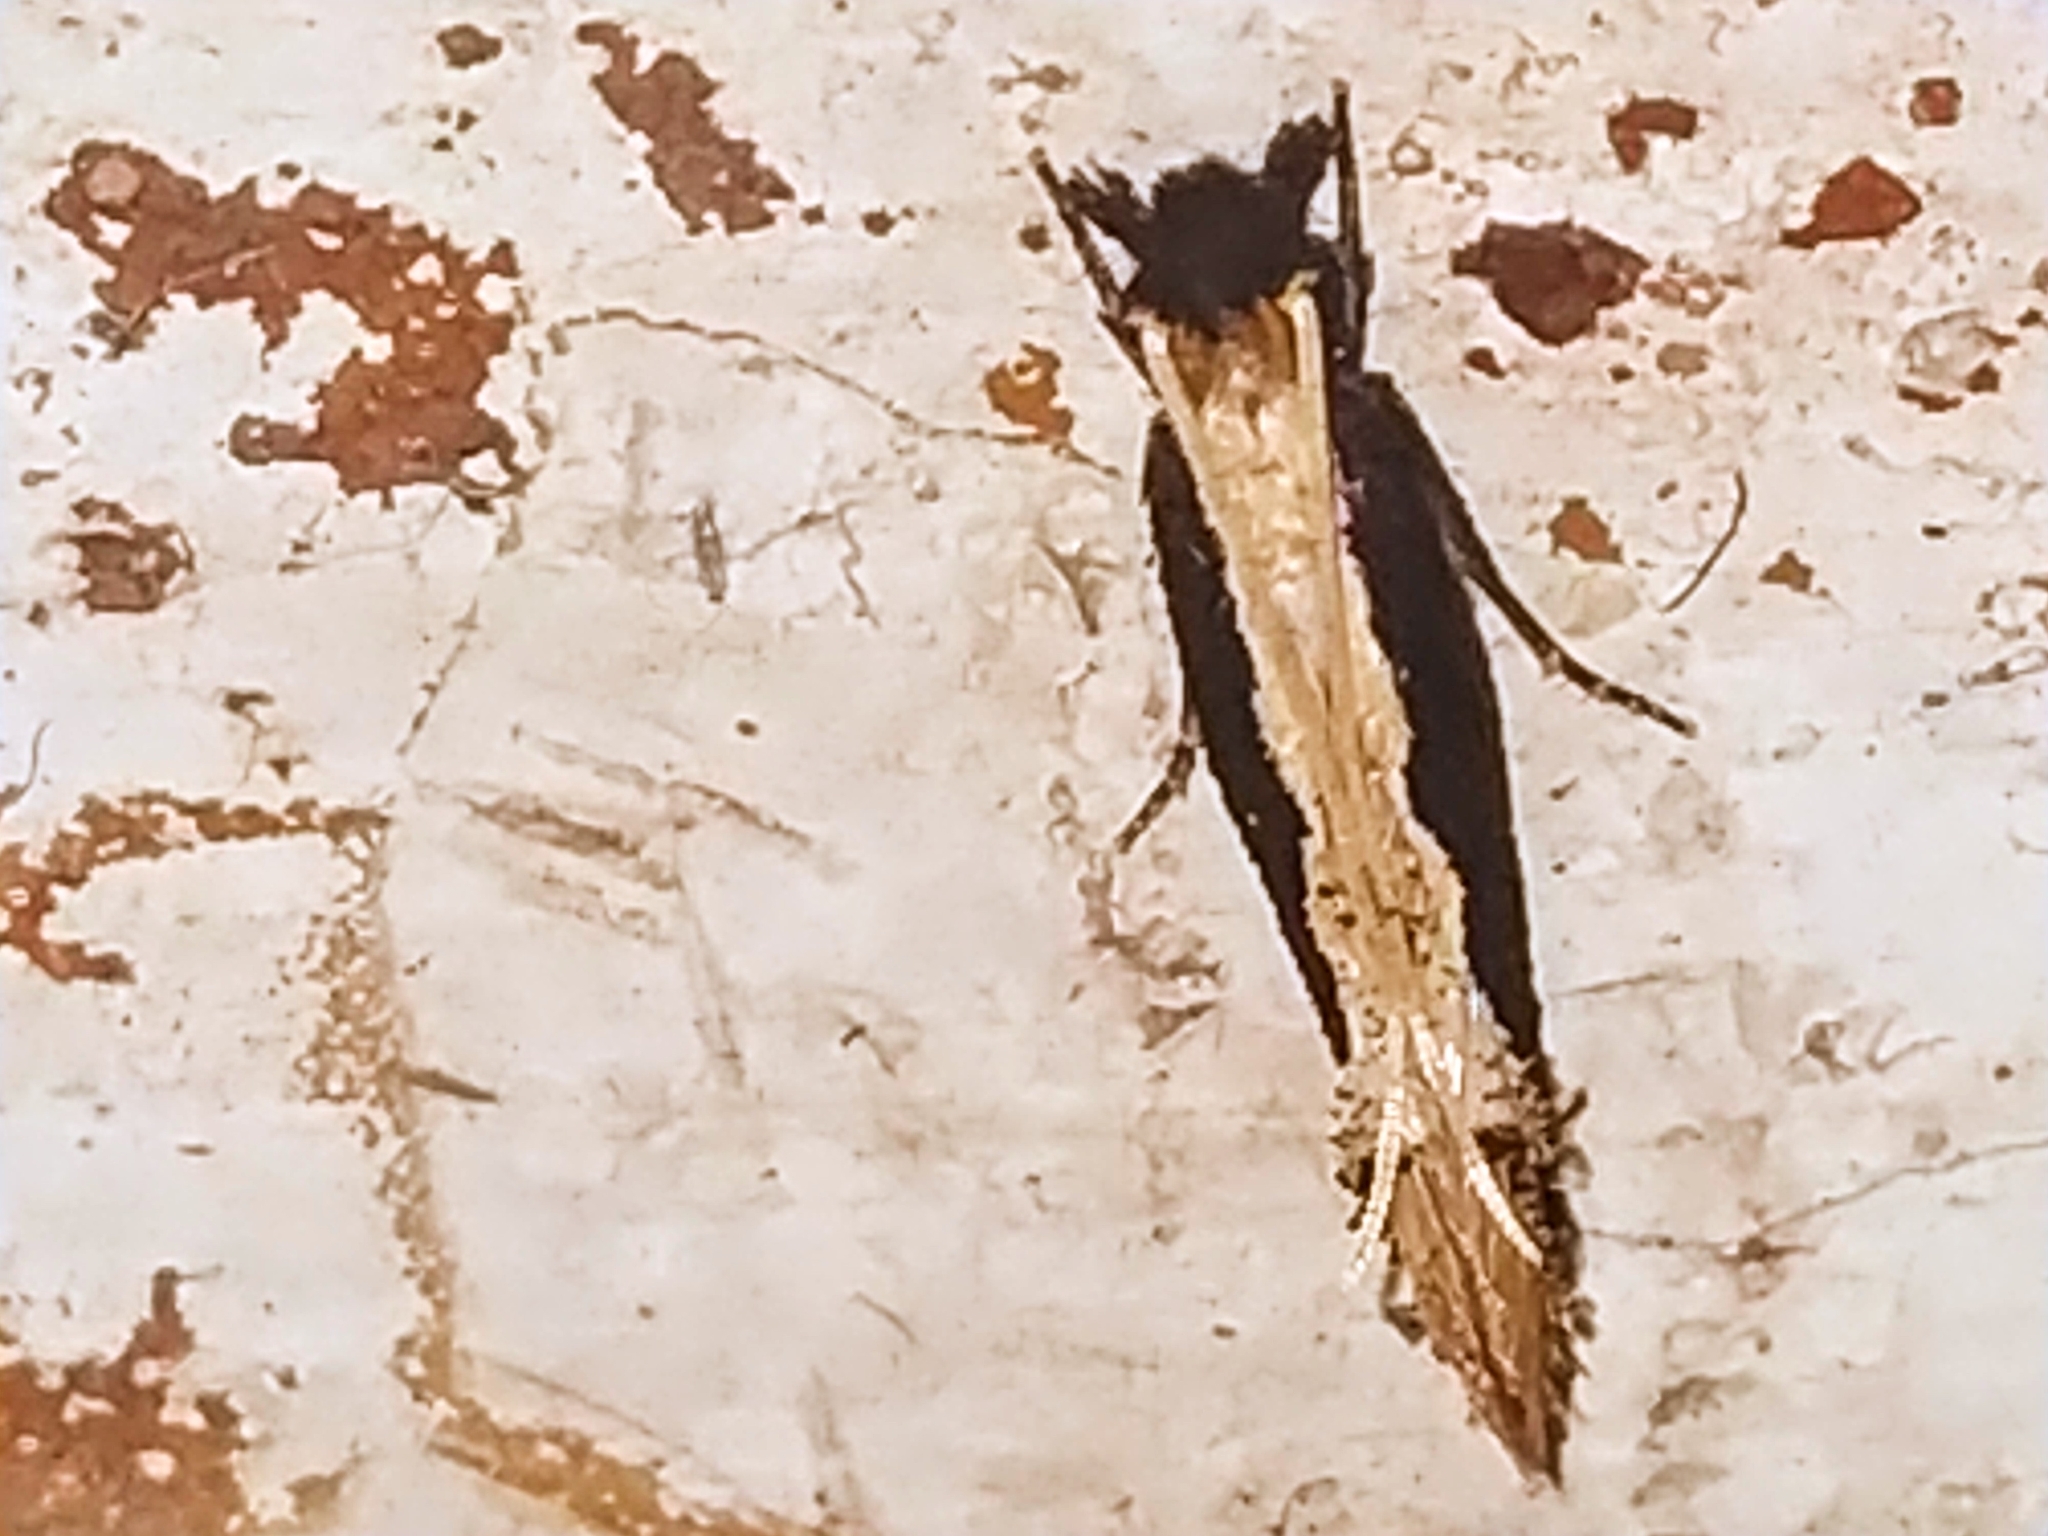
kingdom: Animalia
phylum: Arthropoda
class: Insecta
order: Lepidoptera
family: Tineidae
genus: Pyloetis
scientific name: Pyloetis mimosae
